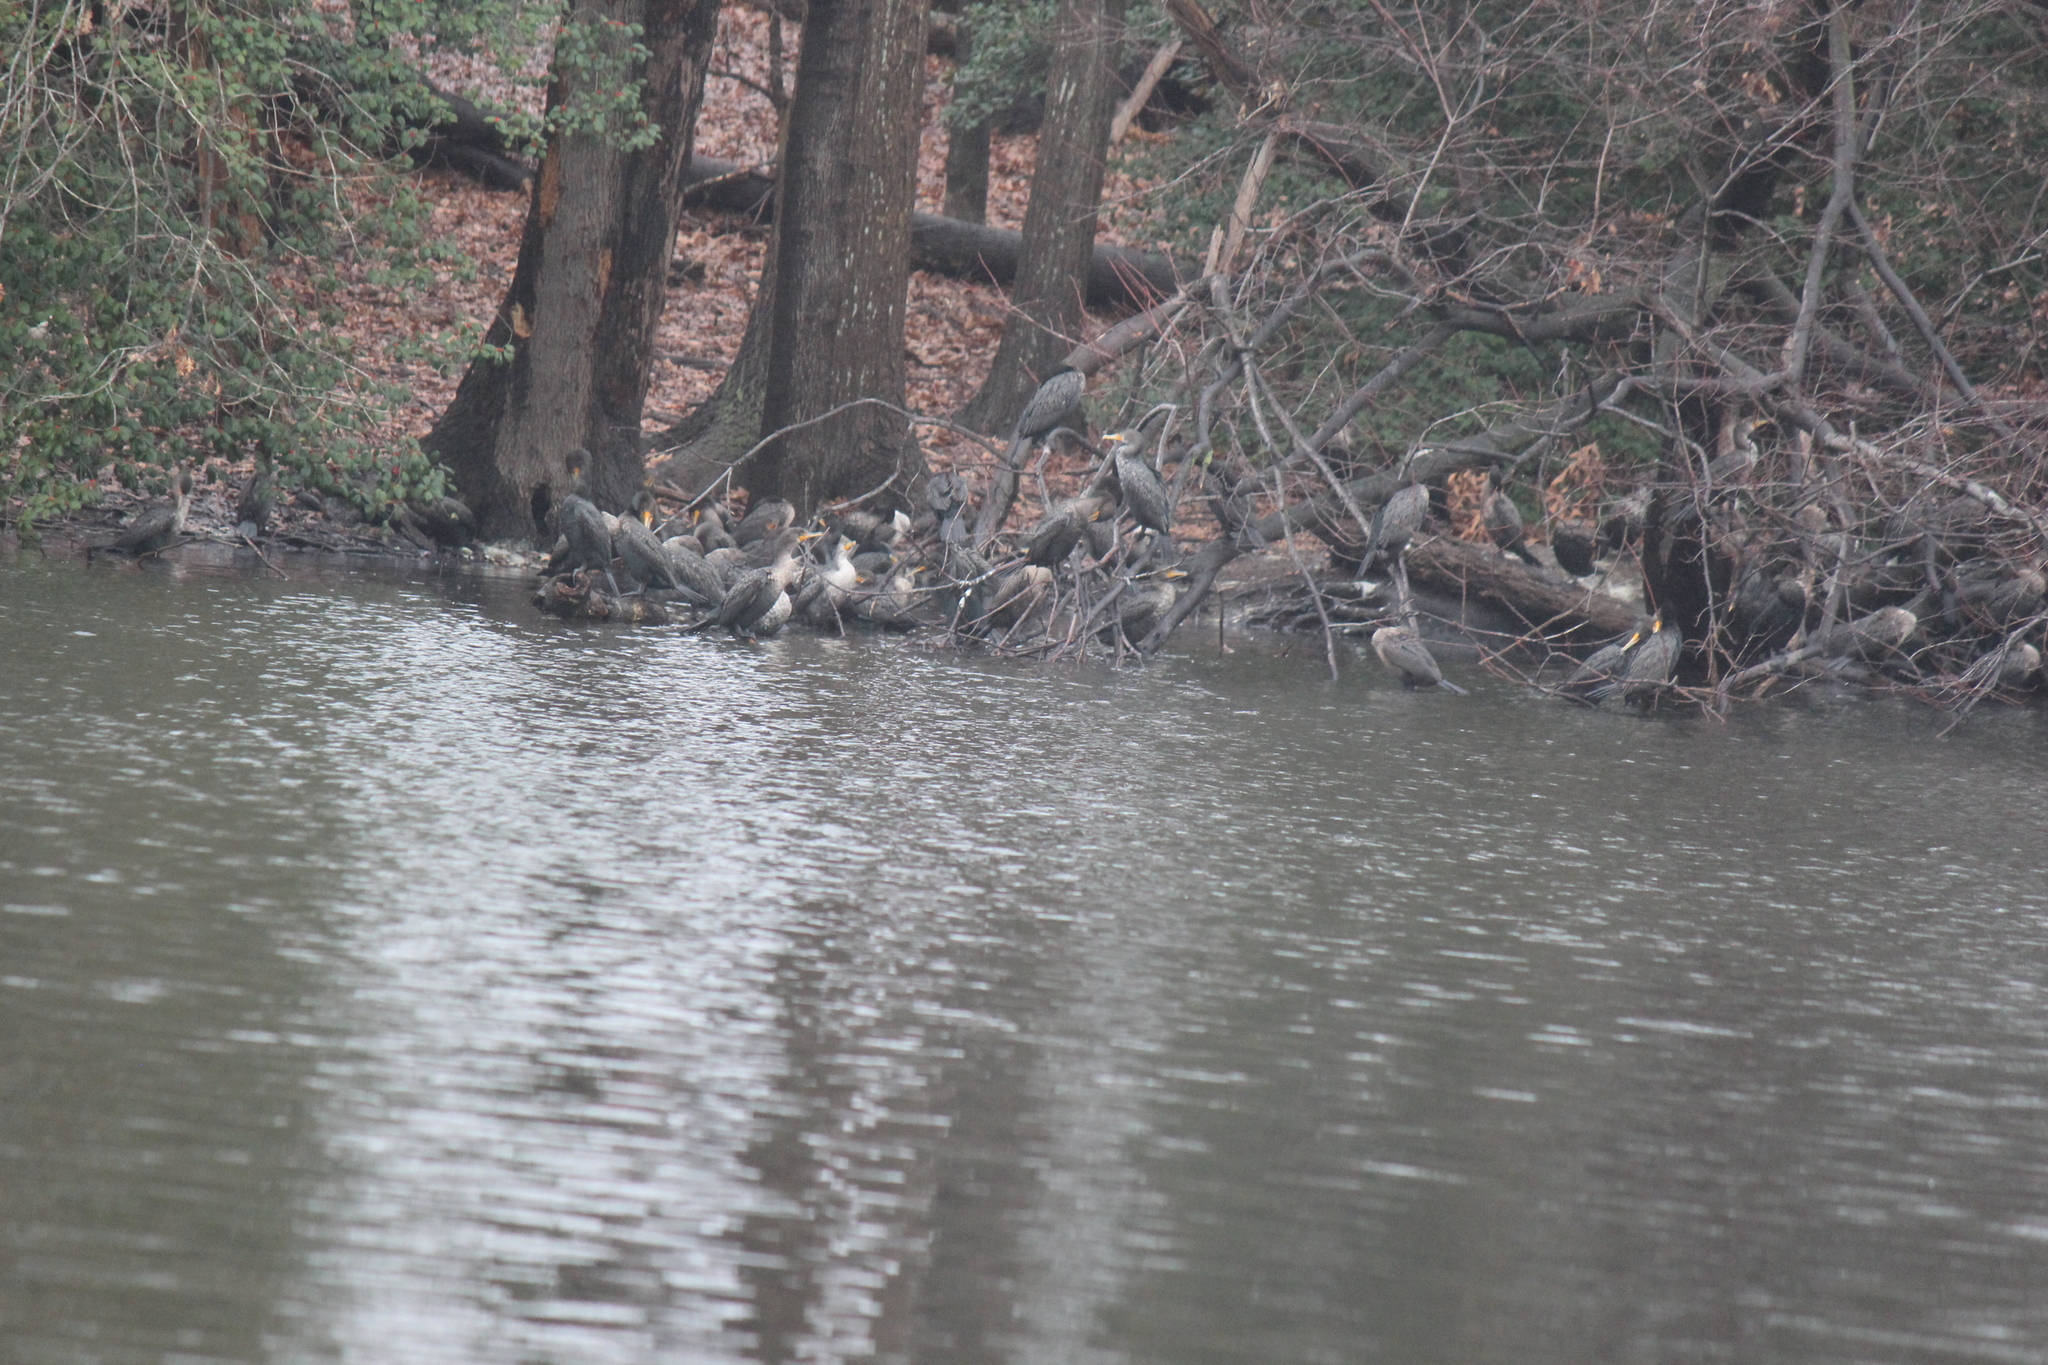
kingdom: Animalia
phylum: Chordata
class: Aves
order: Suliformes
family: Phalacrocoracidae
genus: Phalacrocorax
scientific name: Phalacrocorax auritus
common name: Double-crested cormorant
